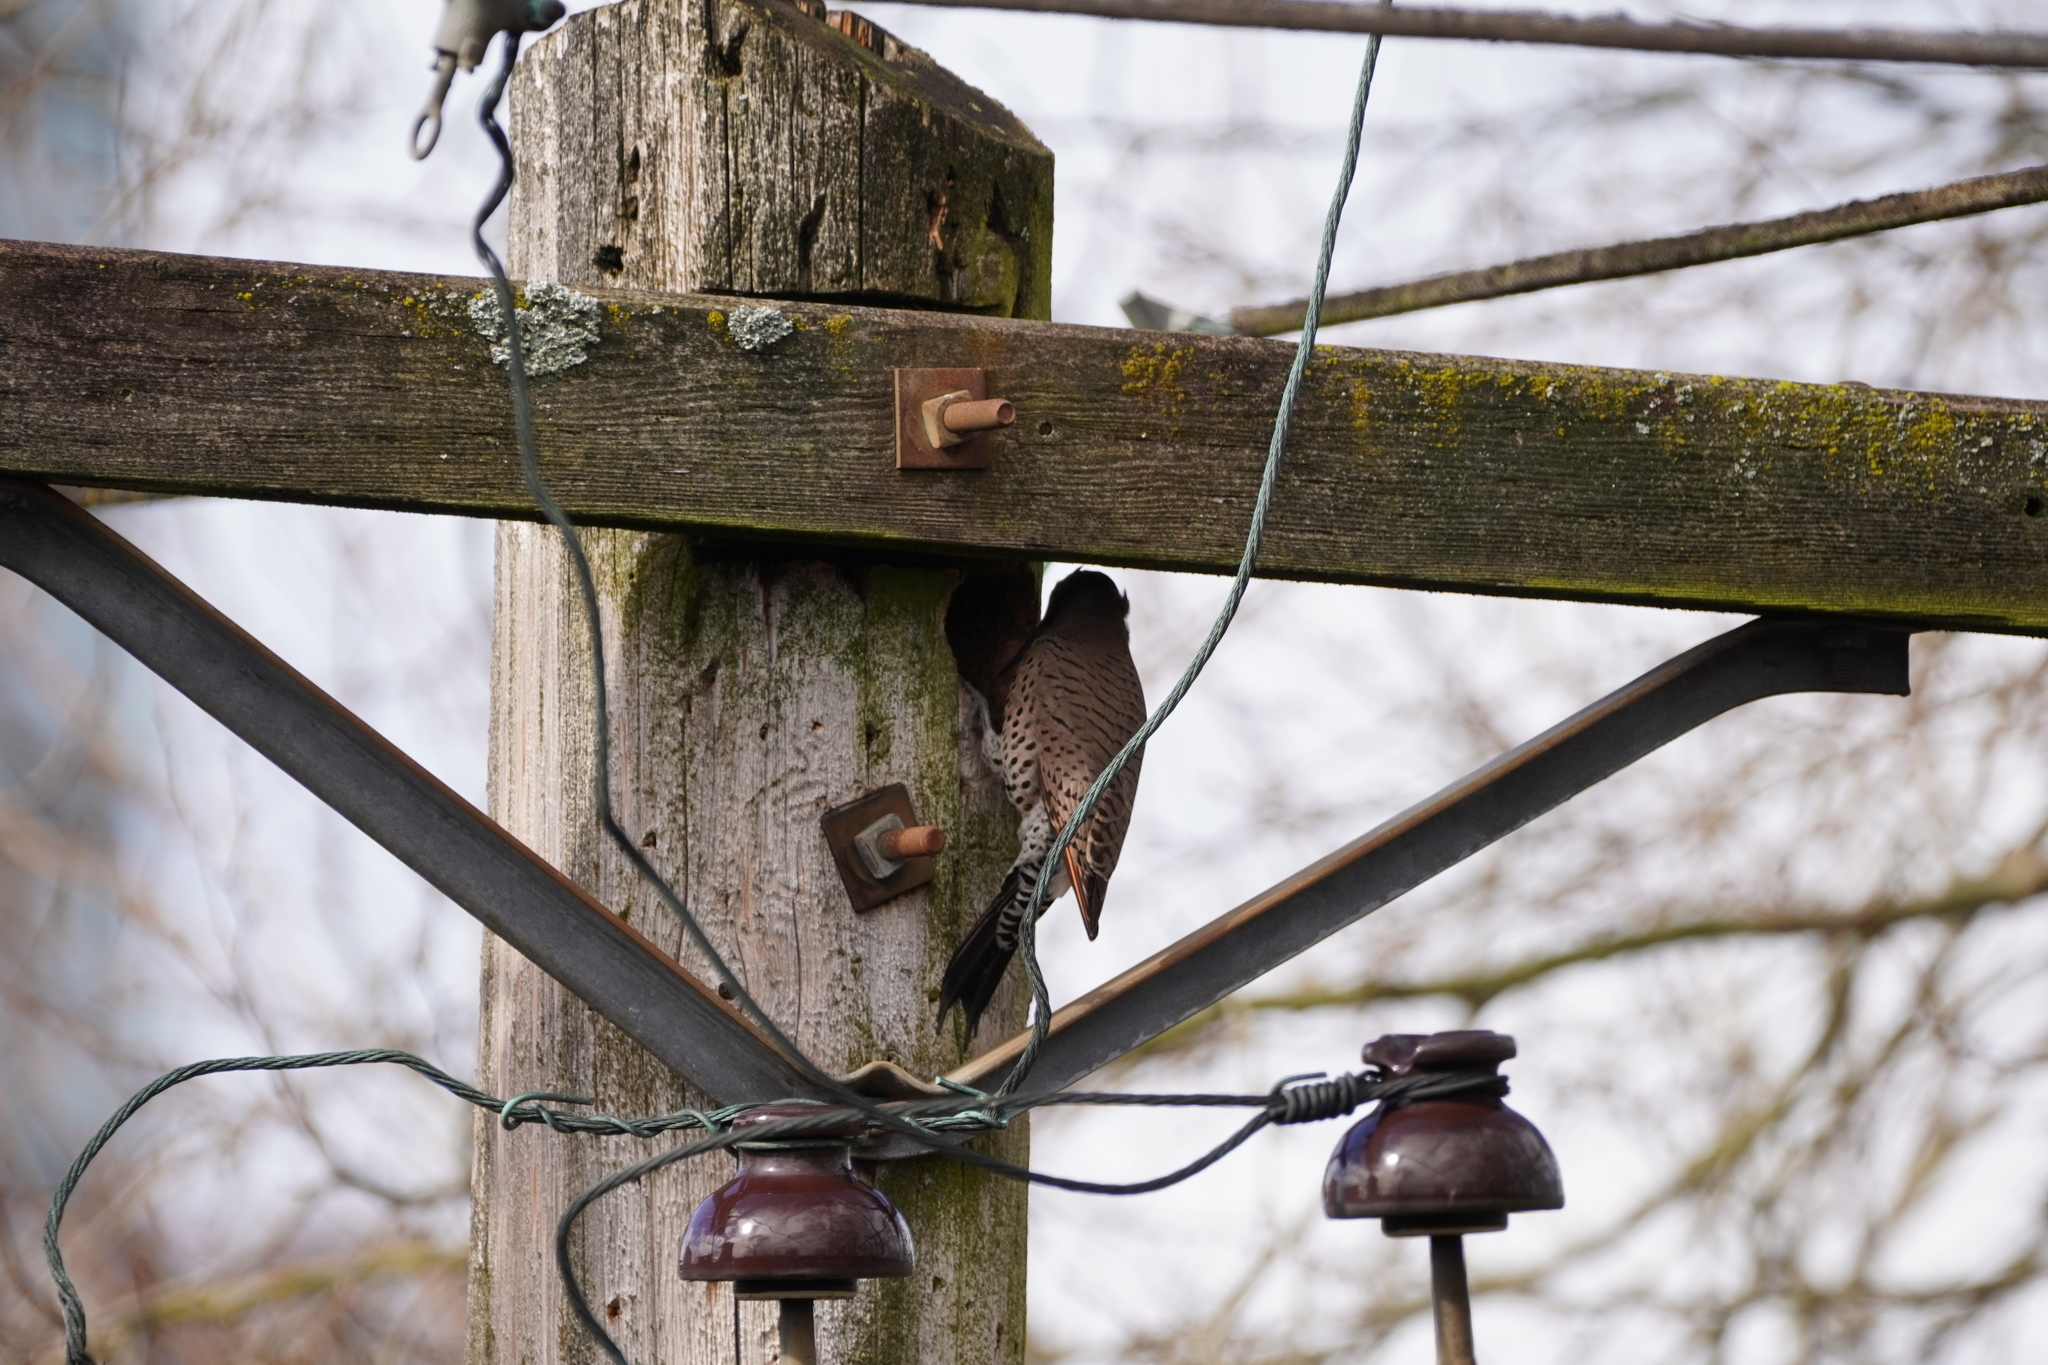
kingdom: Animalia
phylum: Chordata
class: Aves
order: Piciformes
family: Picidae
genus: Colaptes
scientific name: Colaptes auratus
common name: Northern flicker
